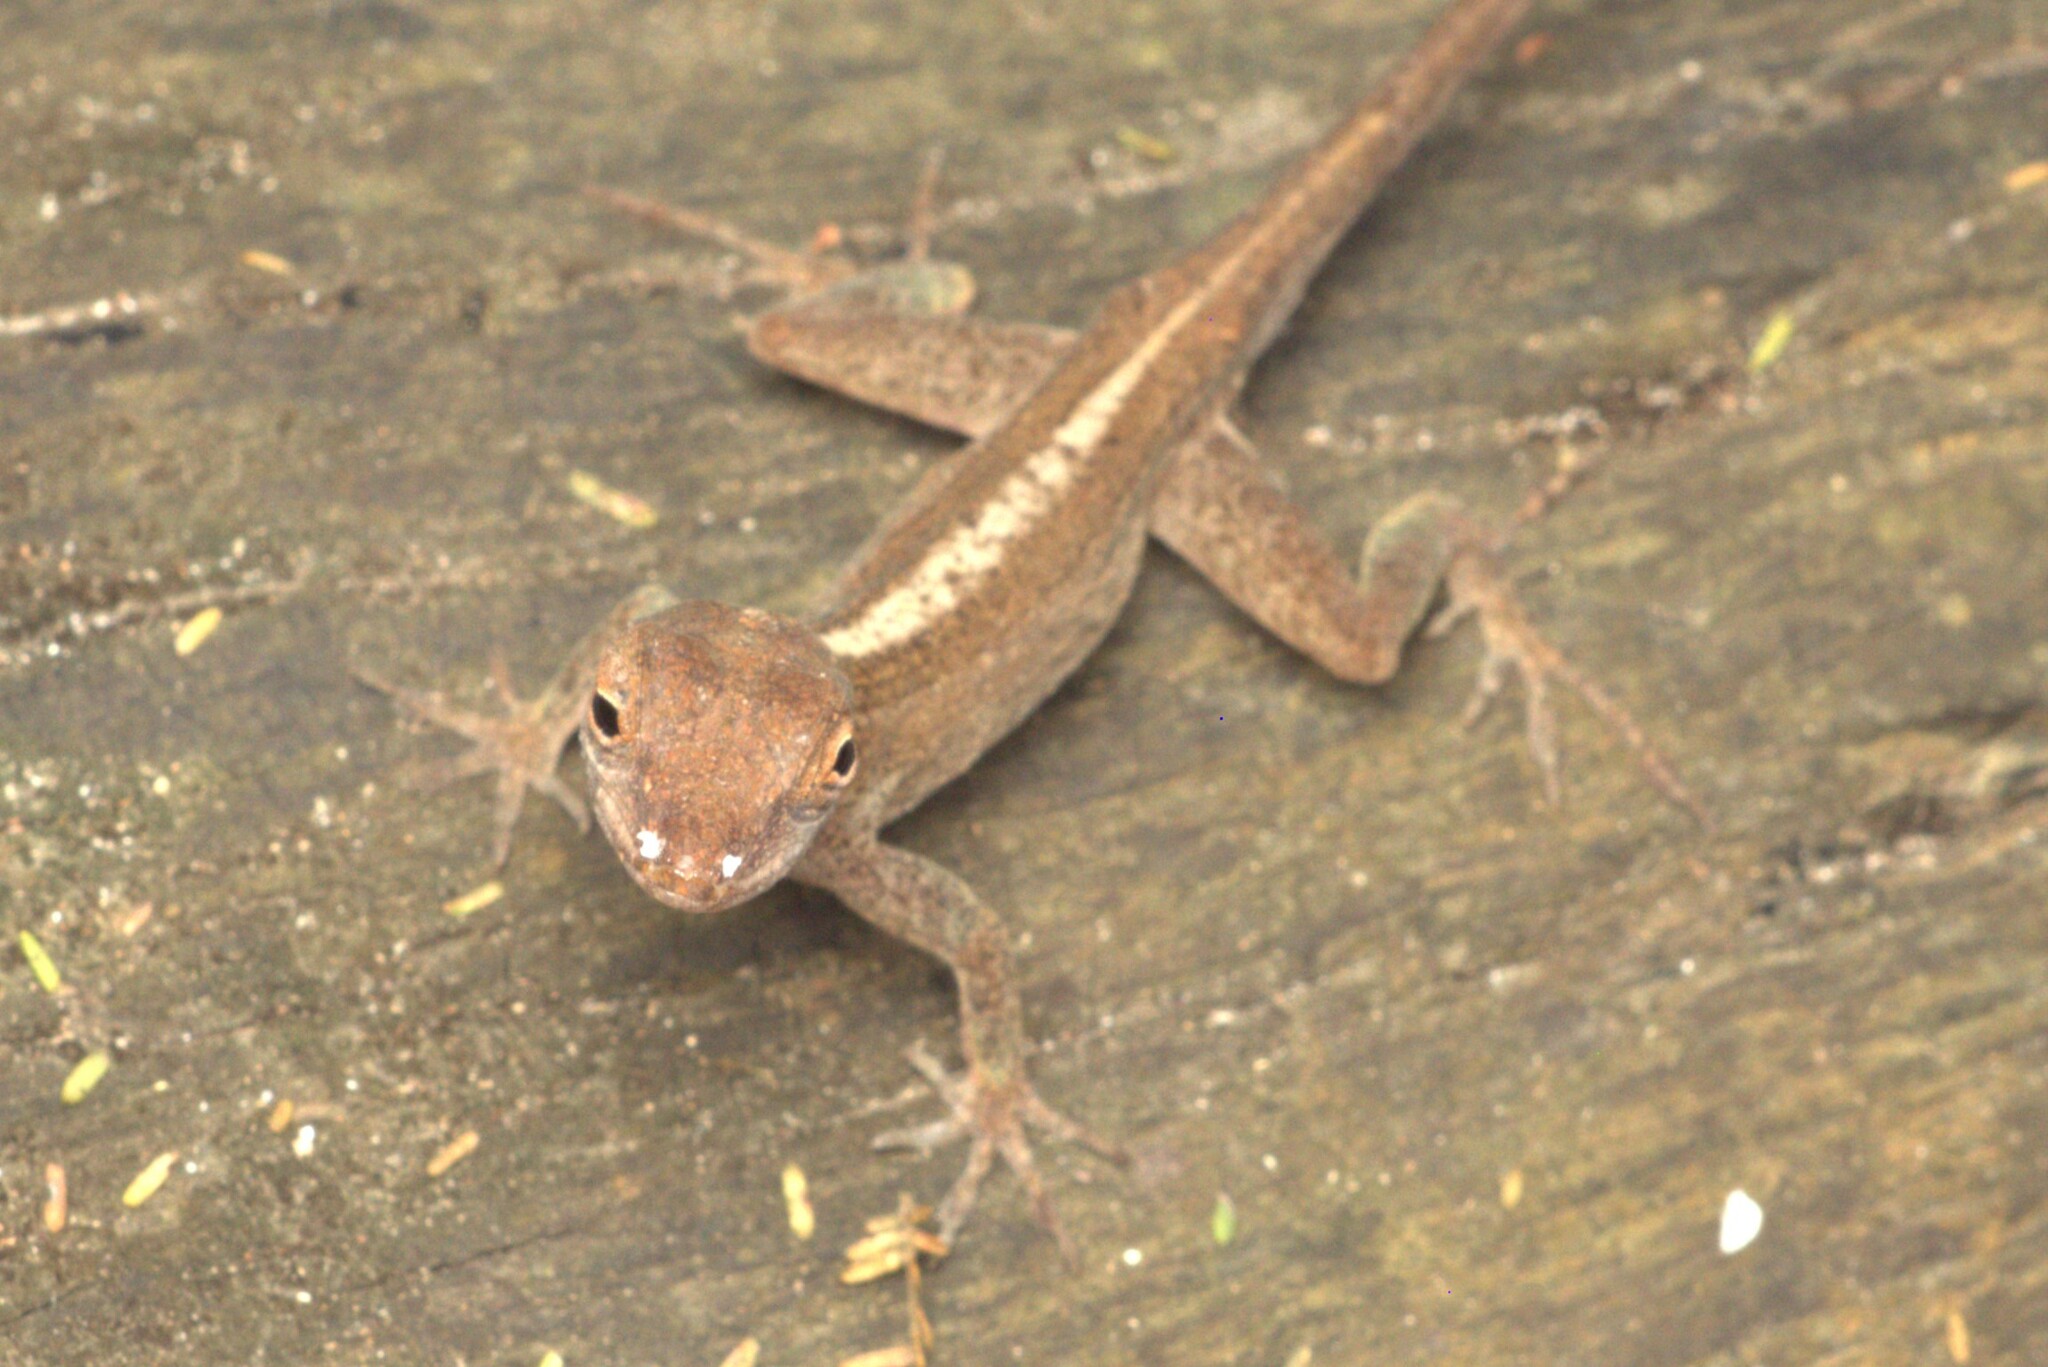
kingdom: Animalia
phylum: Chordata
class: Squamata
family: Dactyloidae
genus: Anolis
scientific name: Anolis sagrei
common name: Brown anole
